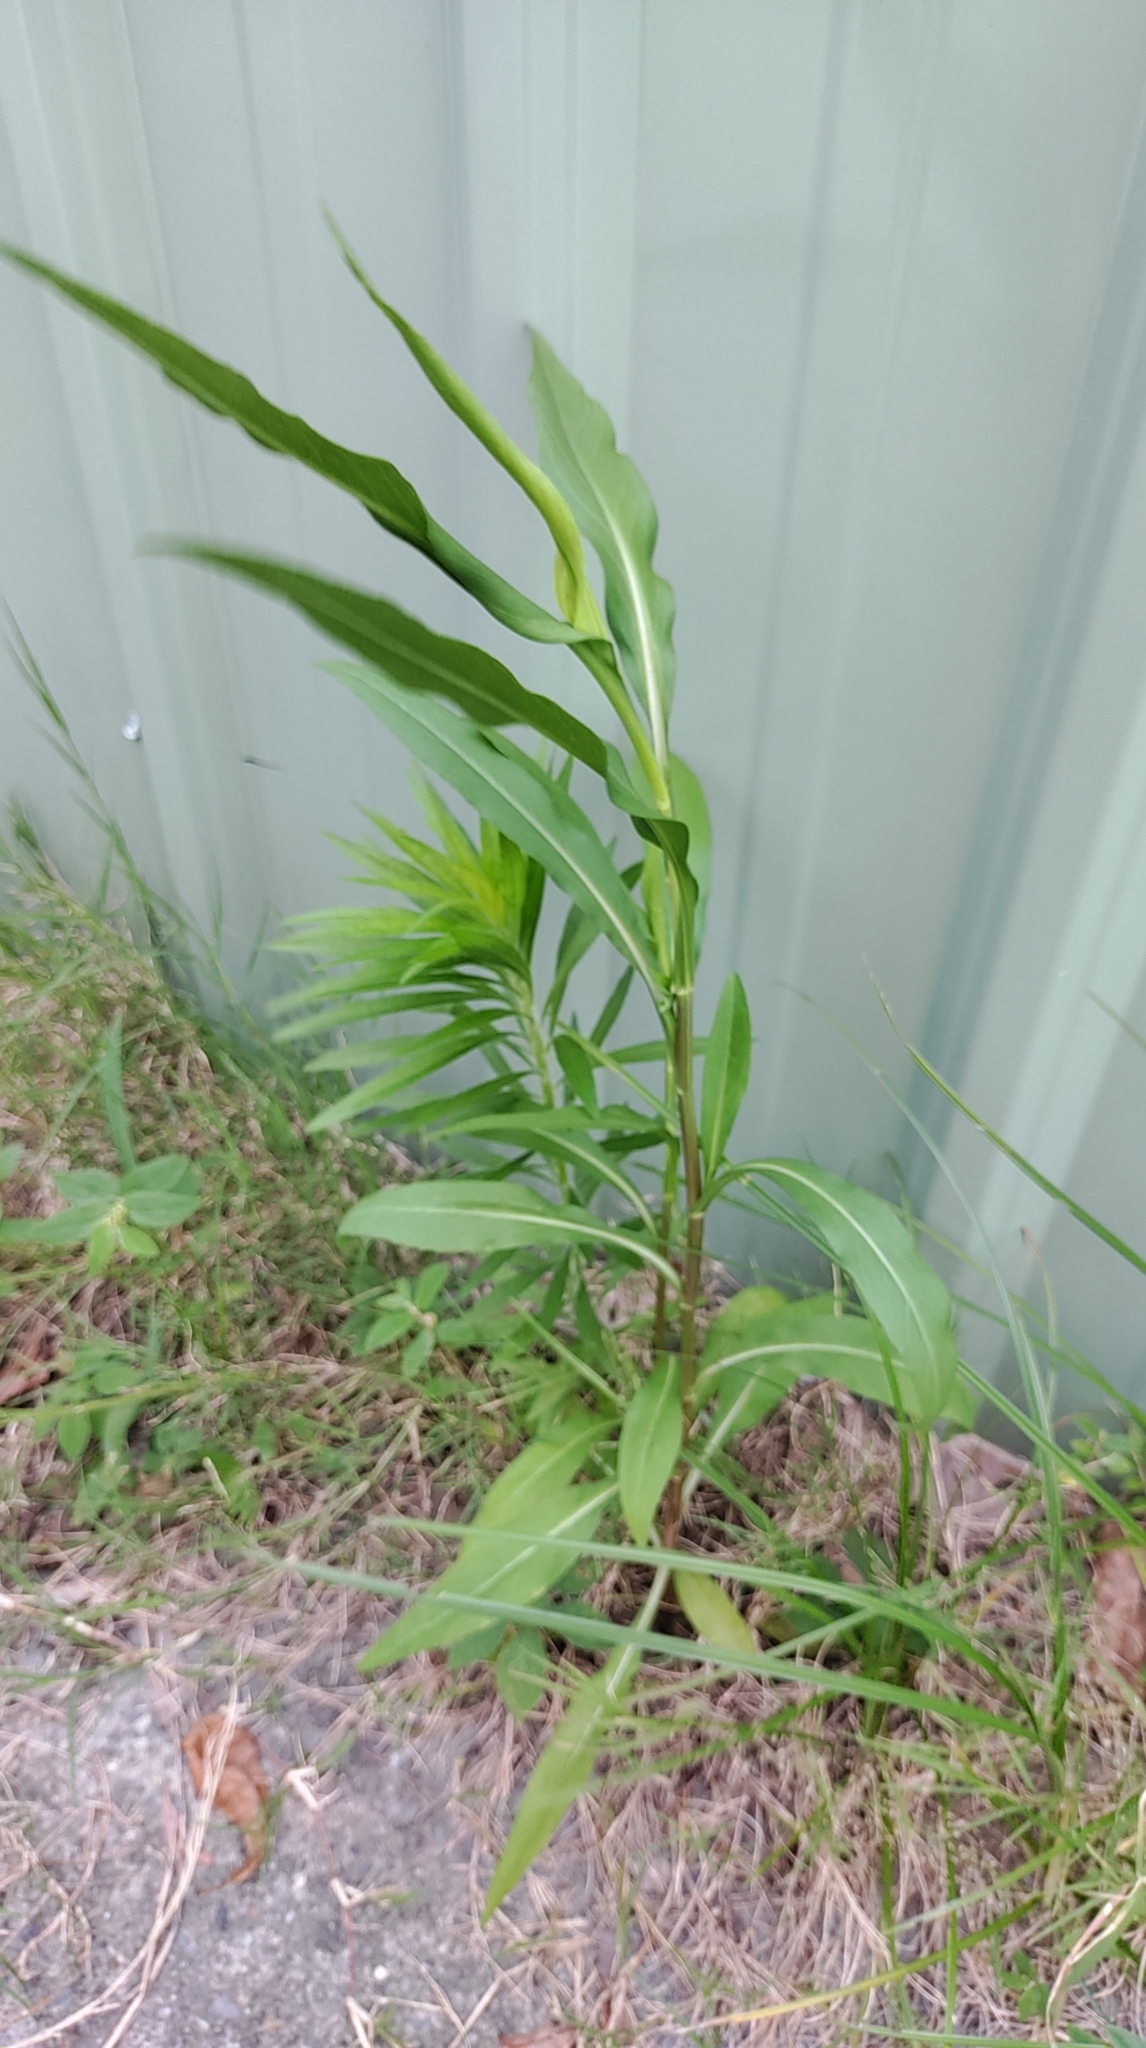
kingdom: Plantae
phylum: Tracheophyta
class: Magnoliopsida
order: Asterales
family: Asteraceae
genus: Symphyotrichum
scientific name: Symphyotrichum subulatum
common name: Annual saltmarsh aster
